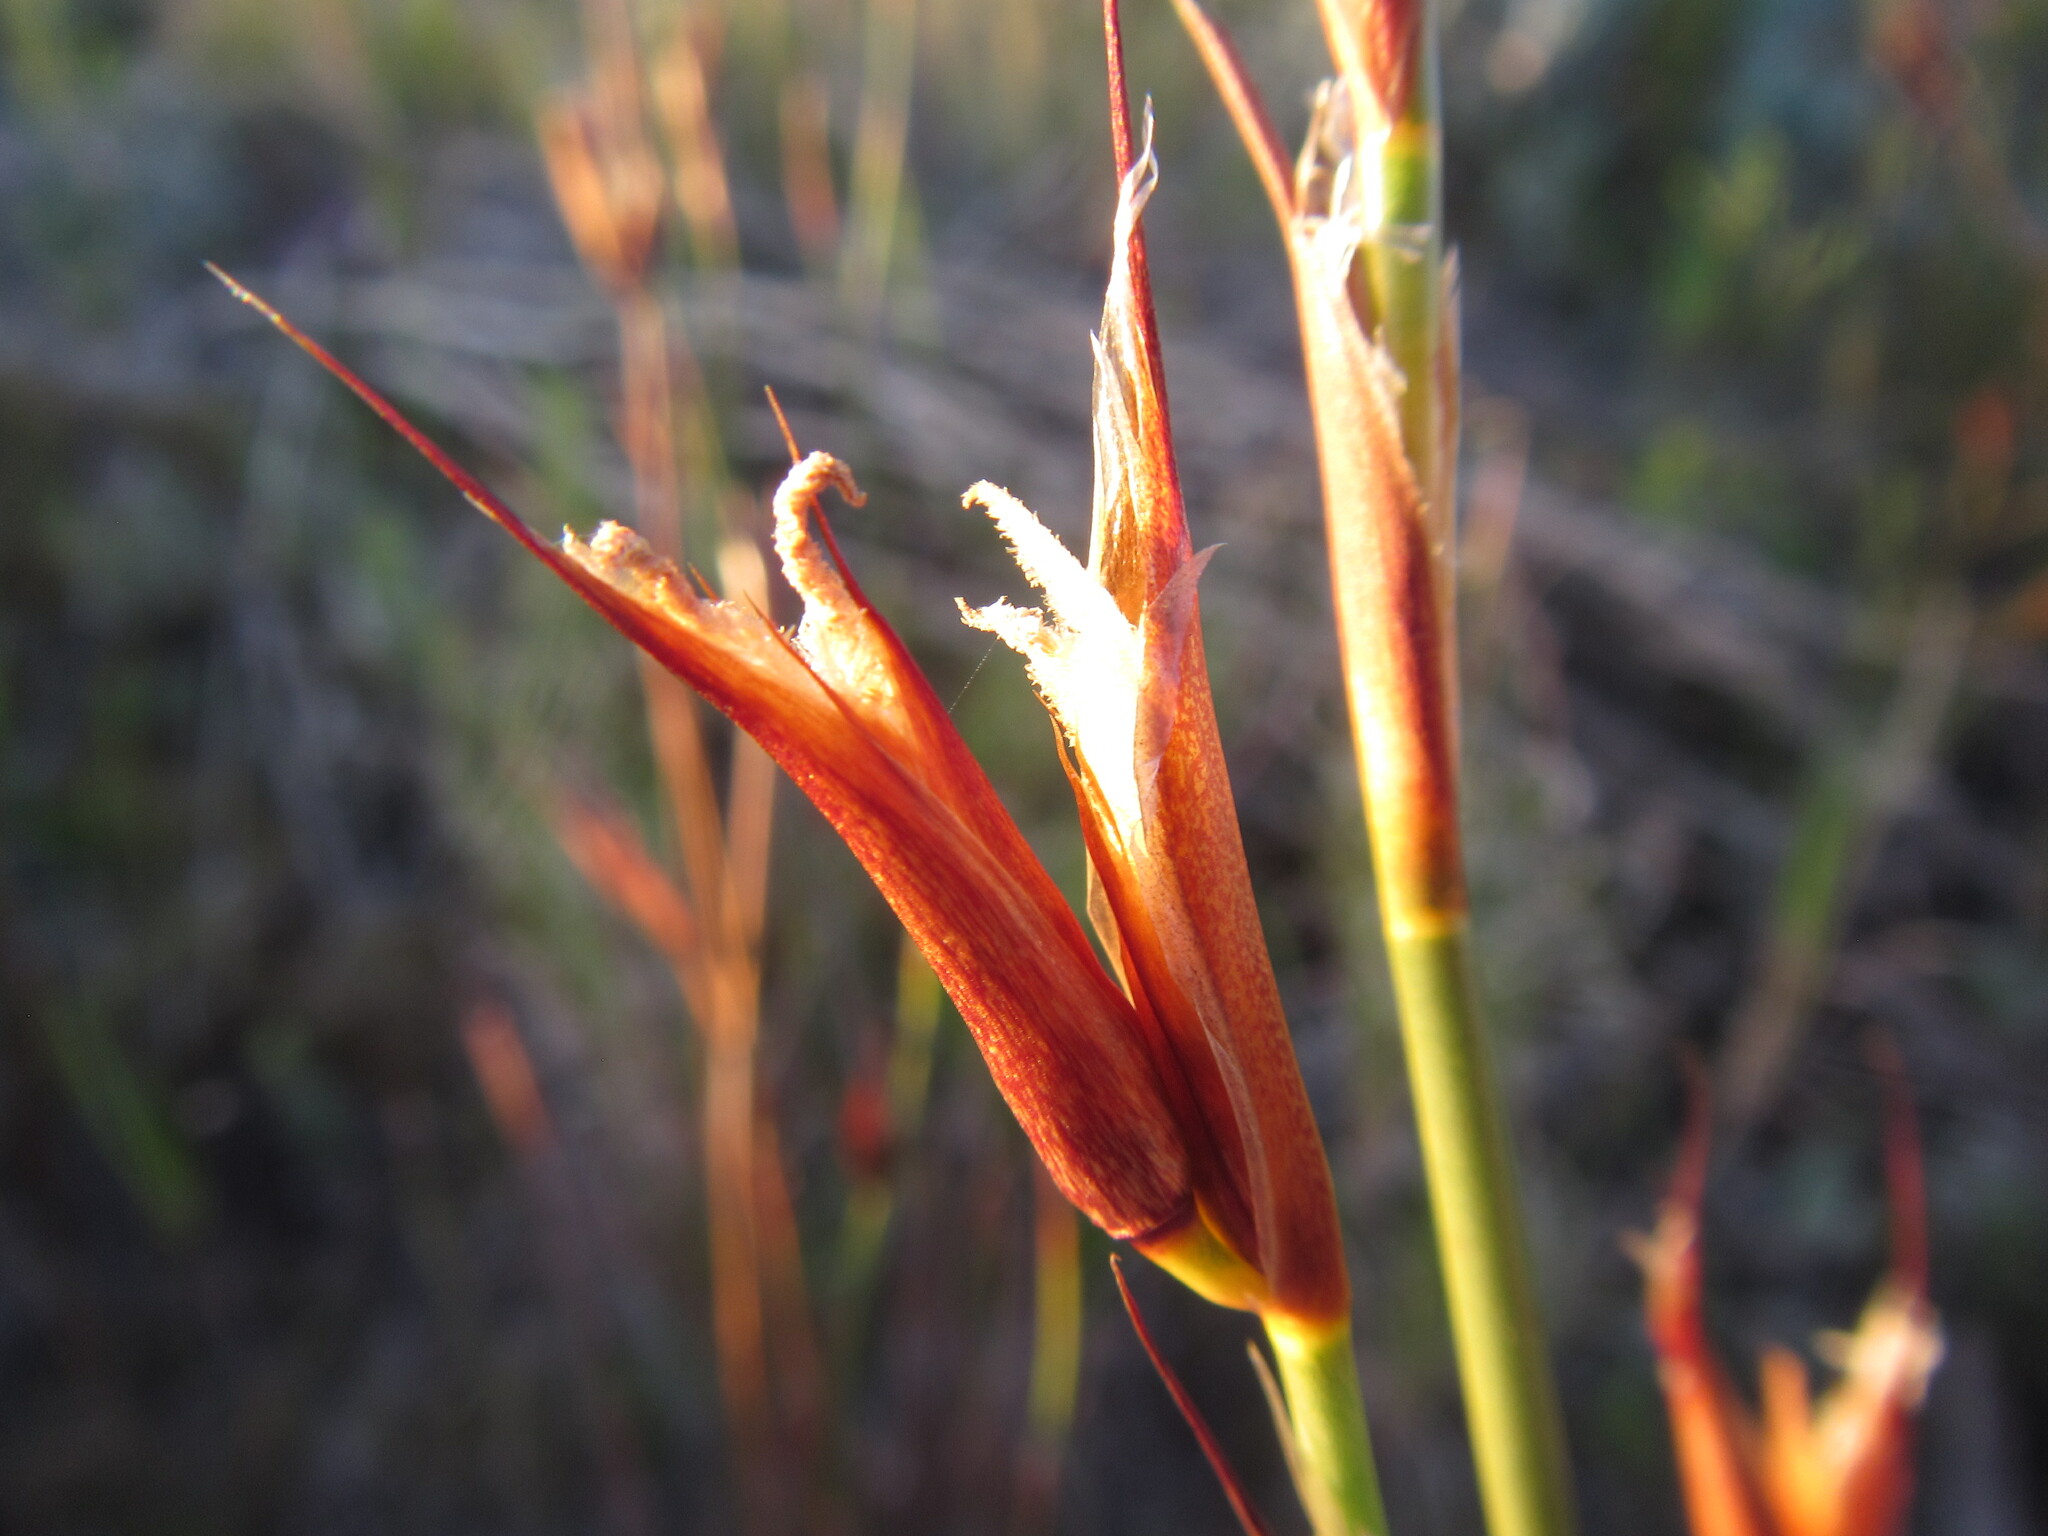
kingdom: Plantae
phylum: Tracheophyta
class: Liliopsida
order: Poales
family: Restionaceae
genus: Willdenowia
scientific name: Willdenowia glomerata
